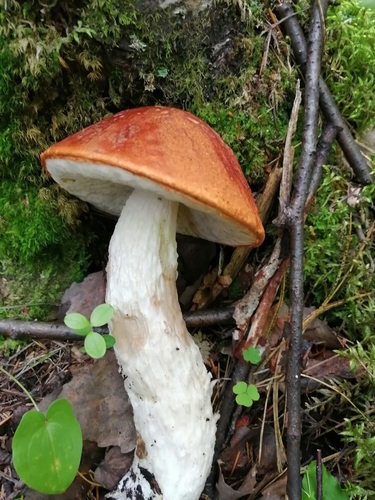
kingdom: Fungi
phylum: Basidiomycota
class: Agaricomycetes
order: Boletales
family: Boletaceae
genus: Leccinum
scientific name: Leccinum albostipitatum
